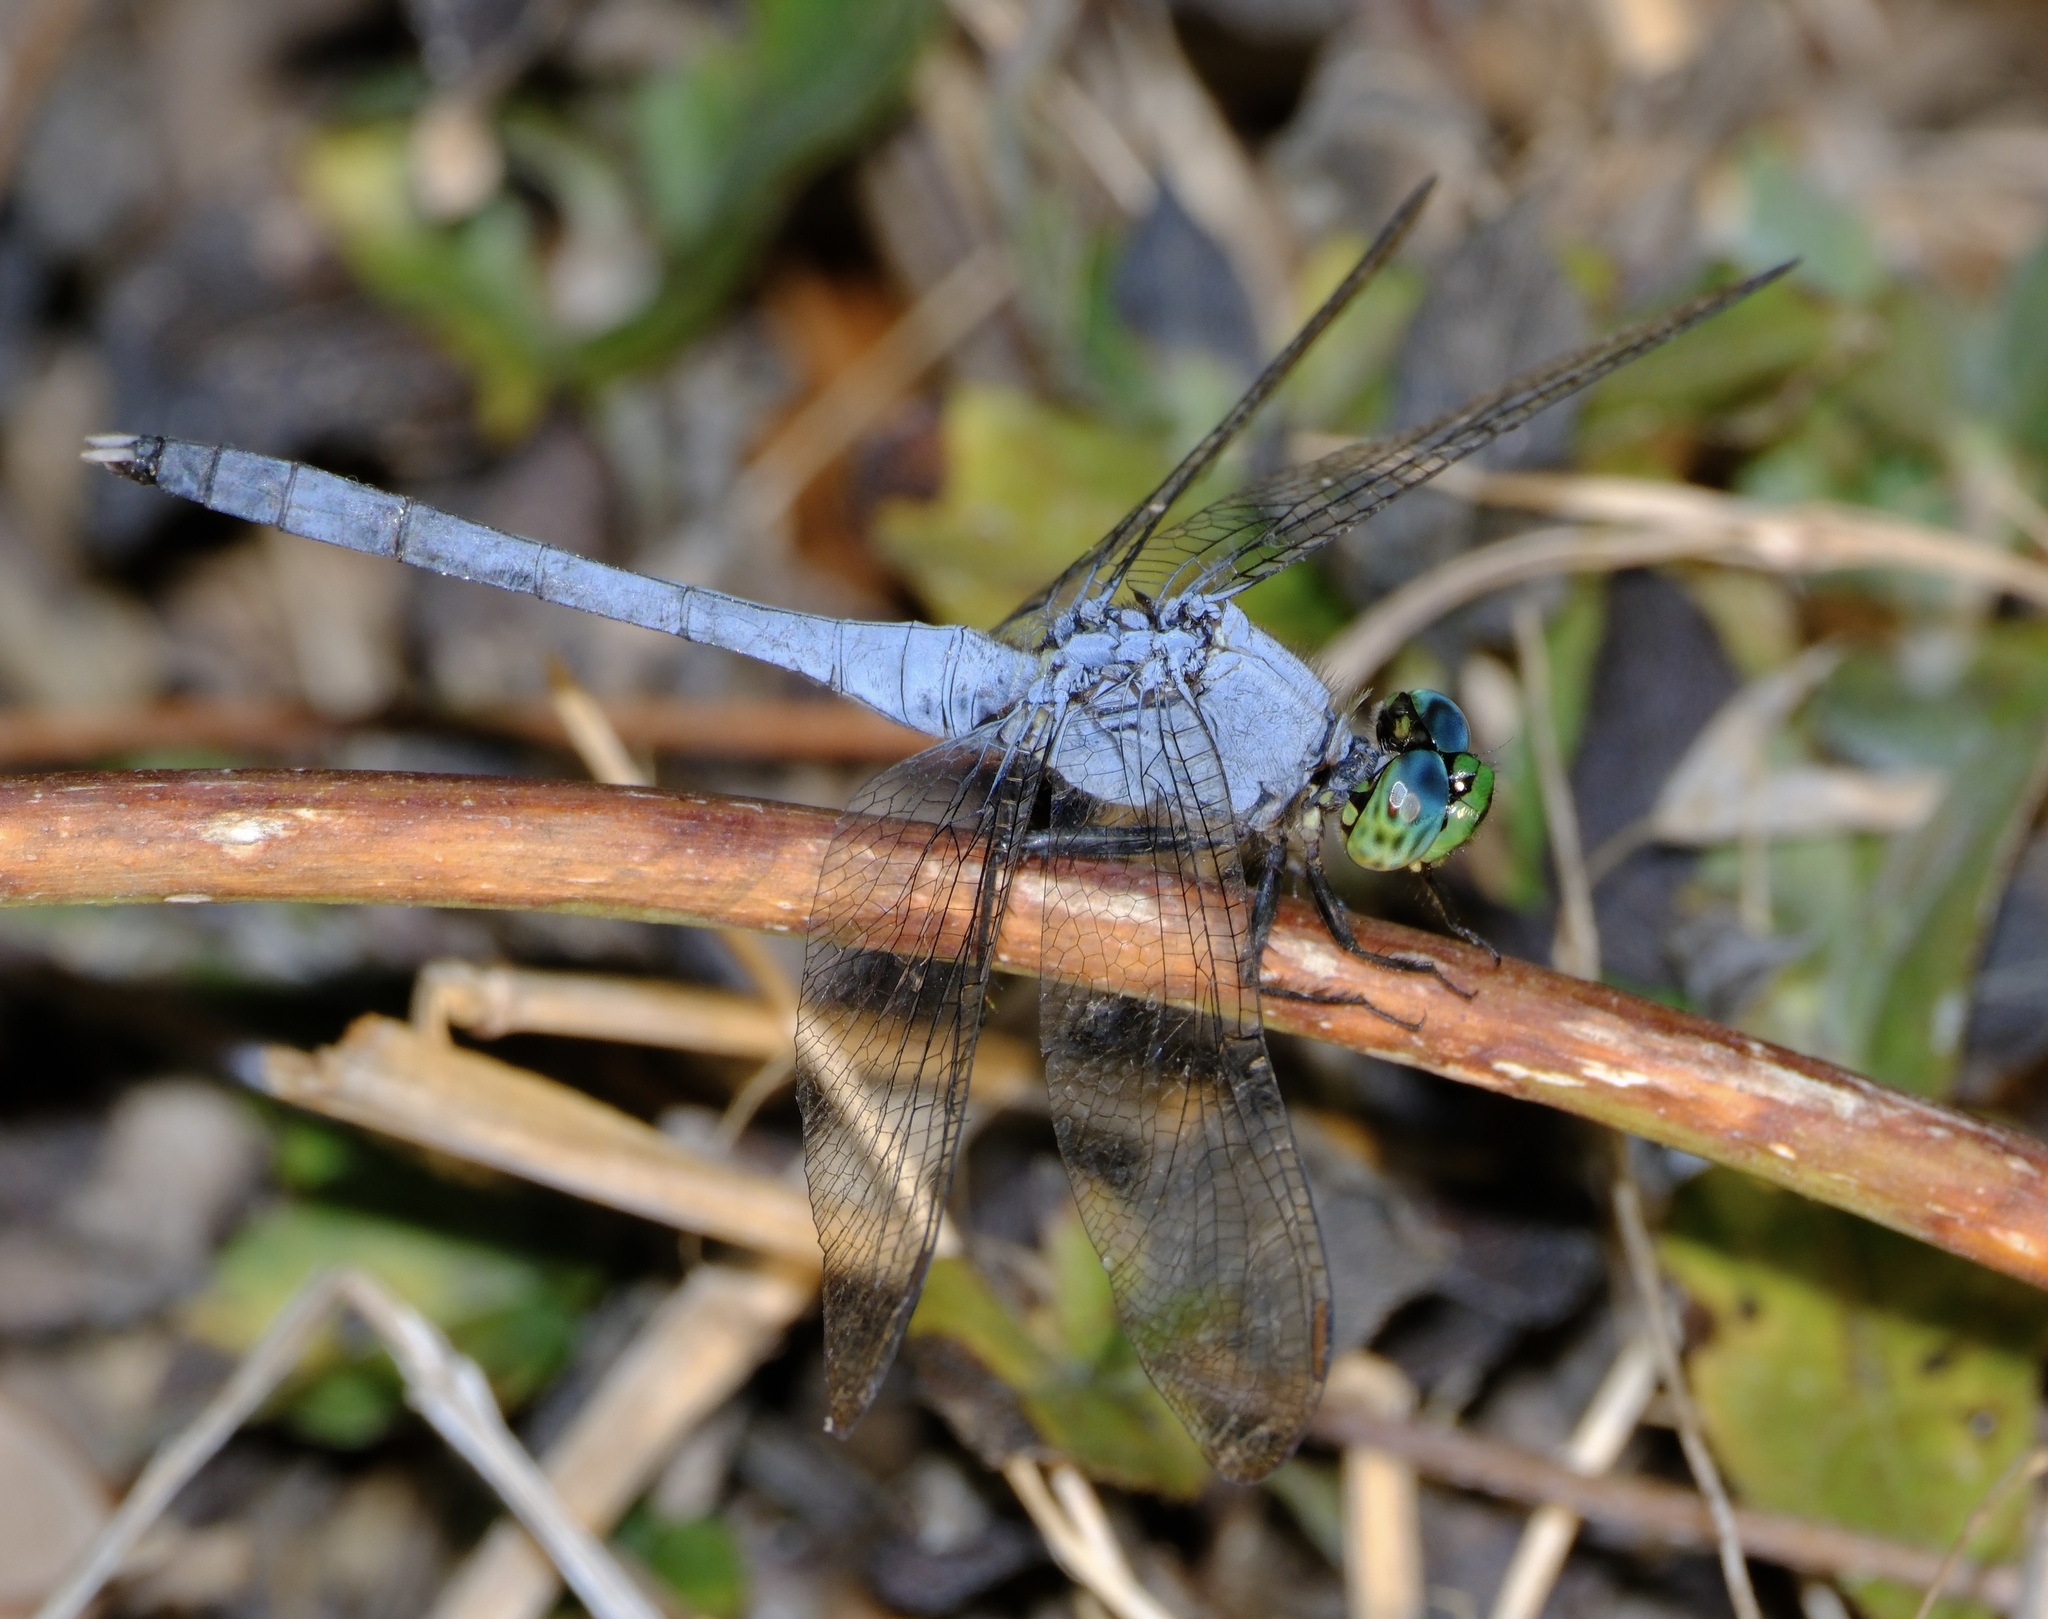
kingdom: Animalia
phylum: Arthropoda
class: Insecta
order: Odonata
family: Libellulidae
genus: Erythemis
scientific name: Erythemis simplicicollis
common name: Eastern pondhawk
